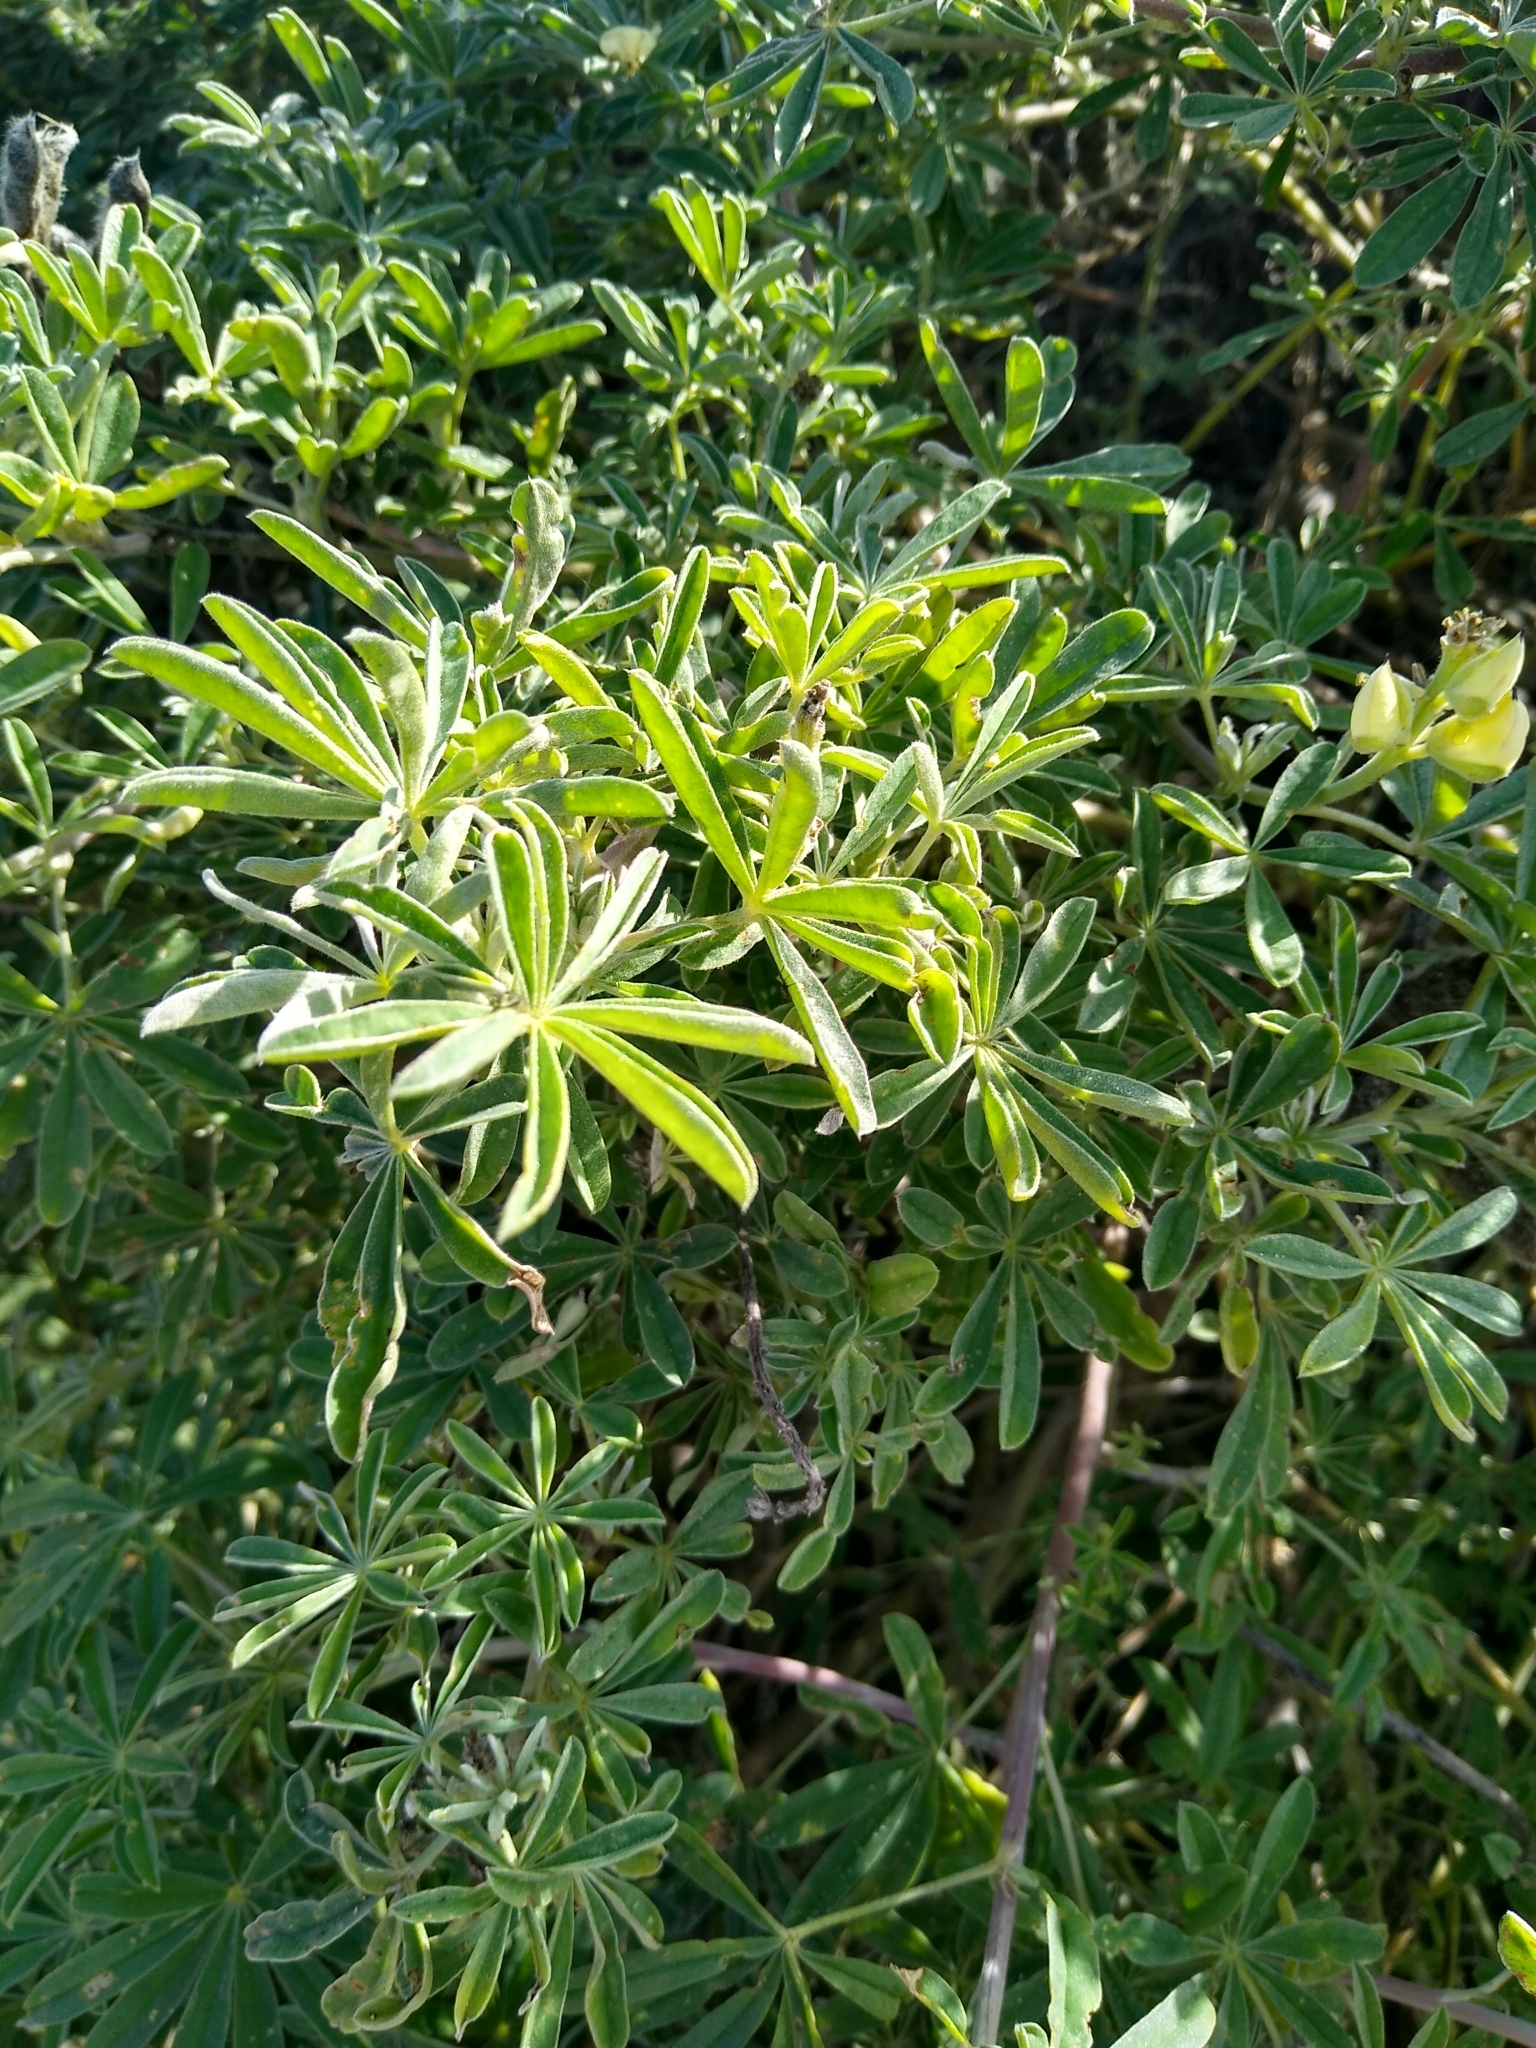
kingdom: Plantae
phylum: Tracheophyta
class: Magnoliopsida
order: Fabales
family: Fabaceae
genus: Lupinus
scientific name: Lupinus arboreus
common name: Yellow bush lupine
